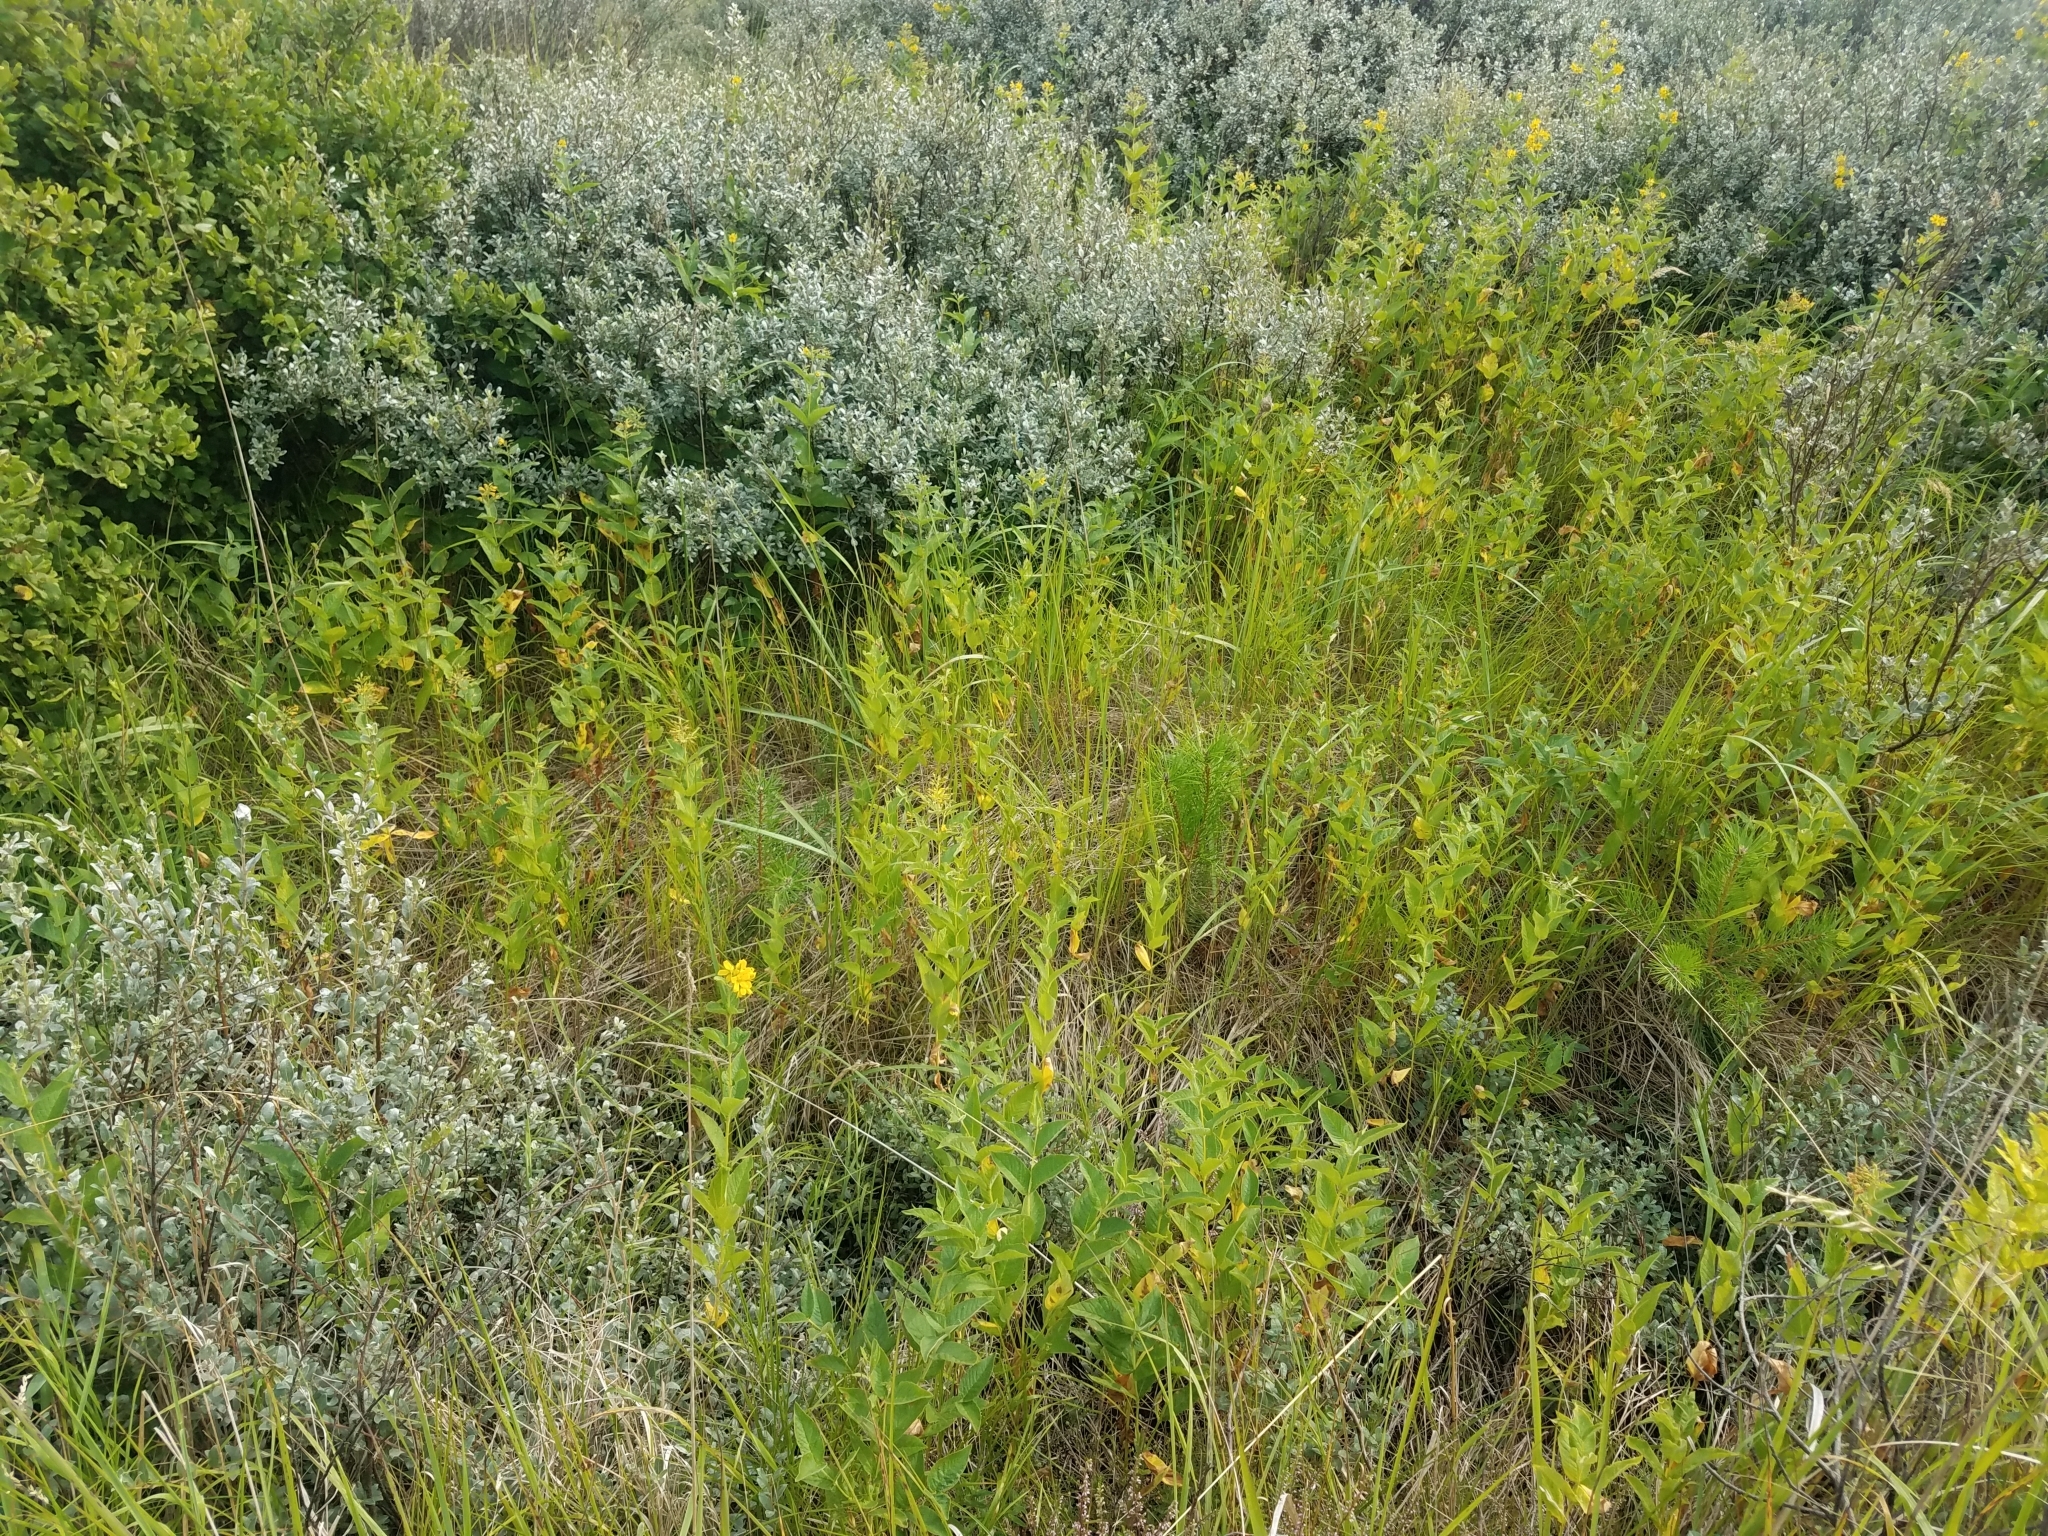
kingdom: Plantae
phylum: Tracheophyta
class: Magnoliopsida
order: Ericales
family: Primulaceae
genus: Lysimachia
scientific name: Lysimachia vulgaris
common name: Yellow loosestrife
